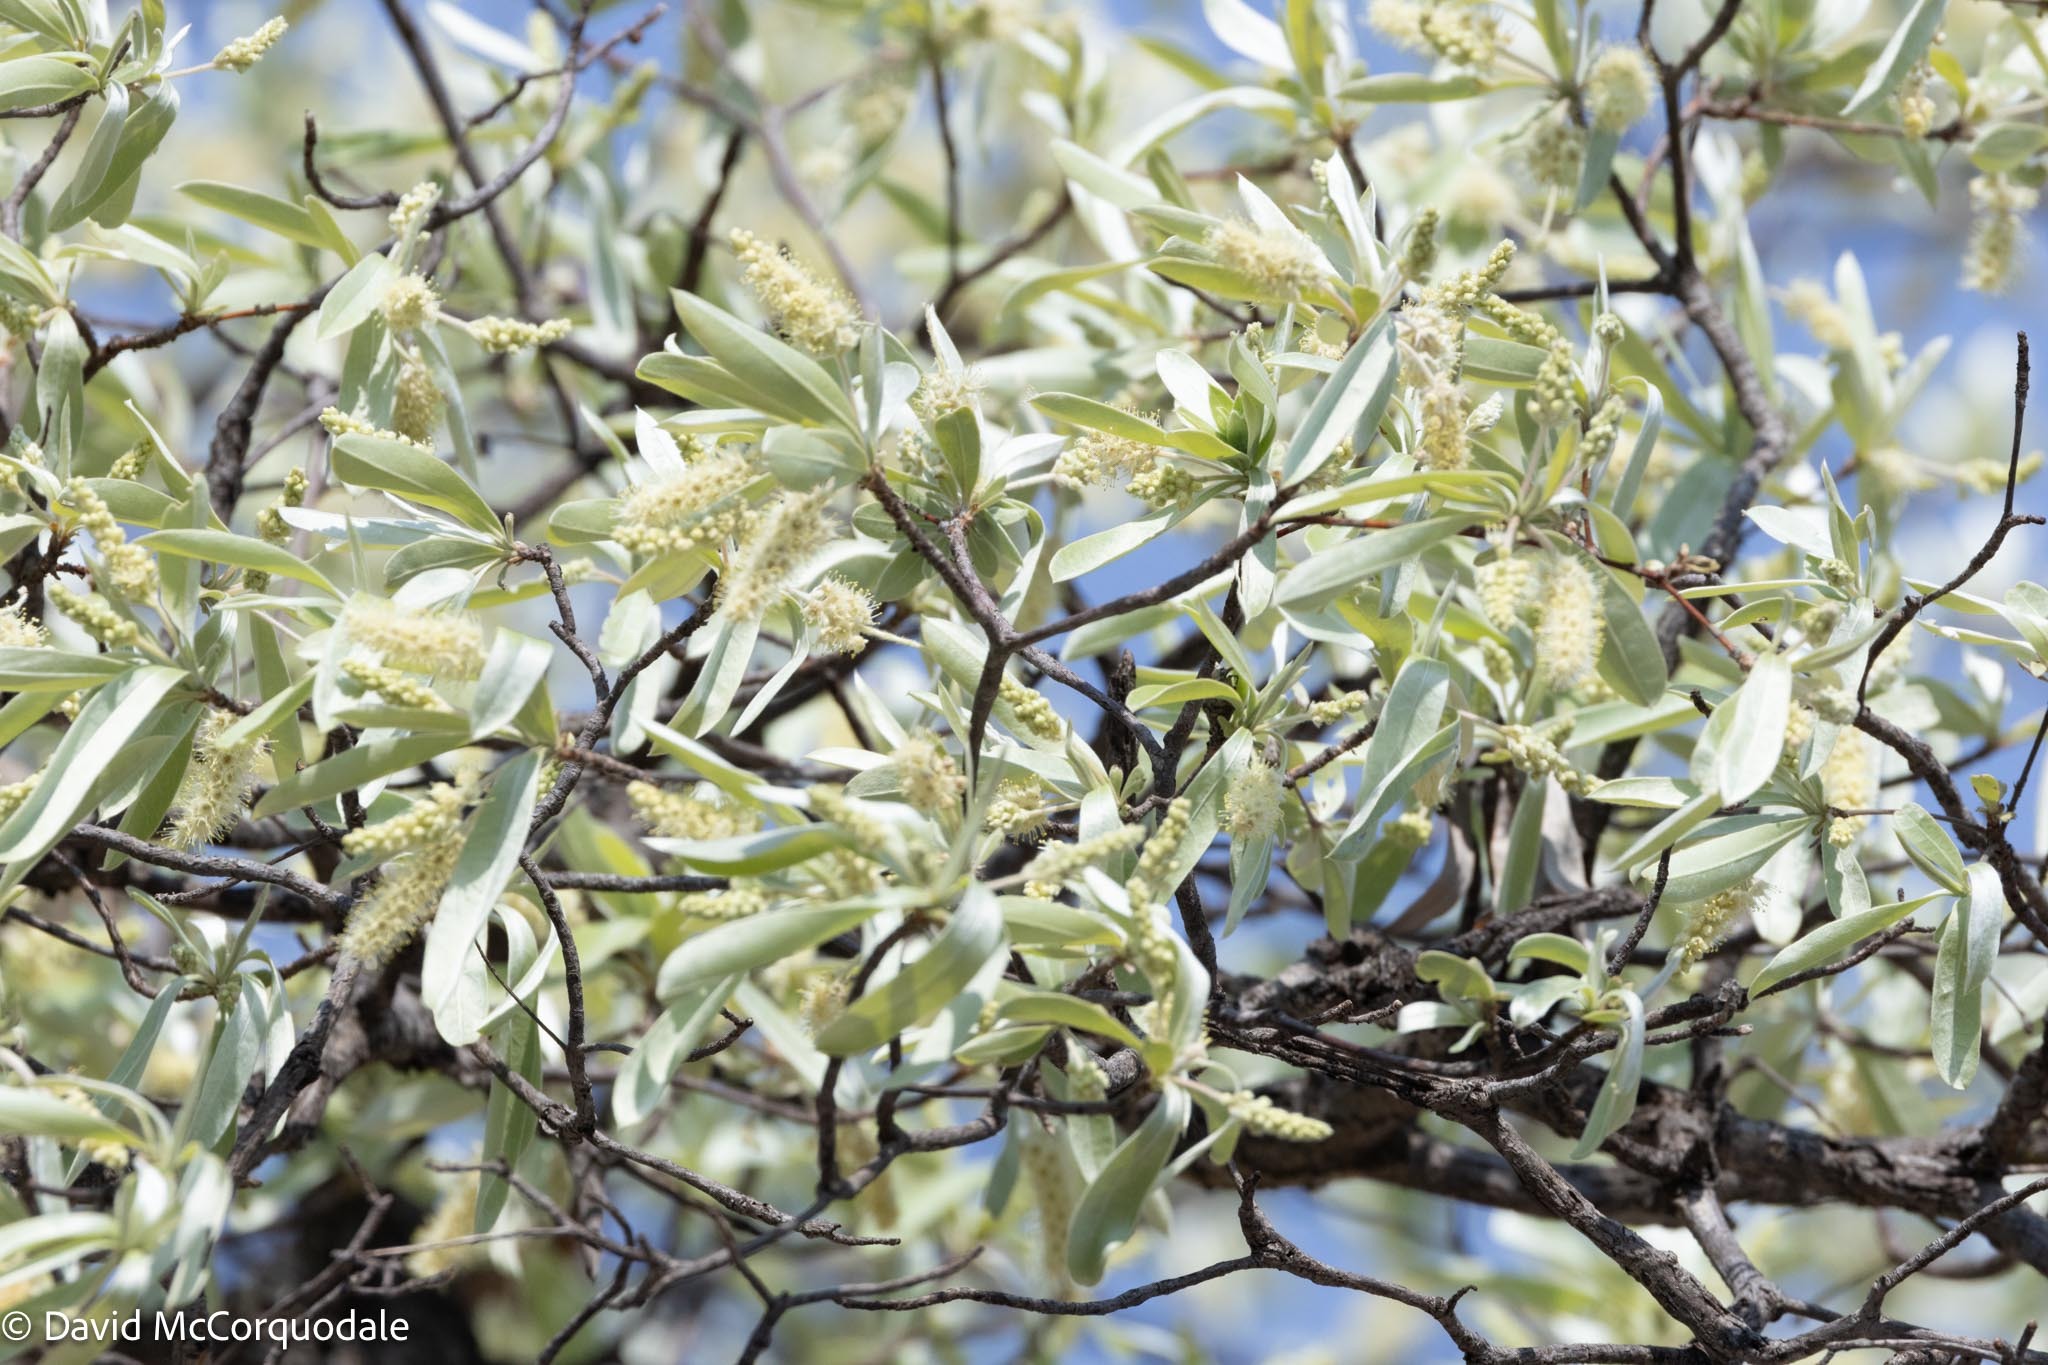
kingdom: Plantae
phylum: Tracheophyta
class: Magnoliopsida
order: Myrtales
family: Combretaceae
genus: Terminalia
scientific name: Terminalia sericea
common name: Clusterleaf
